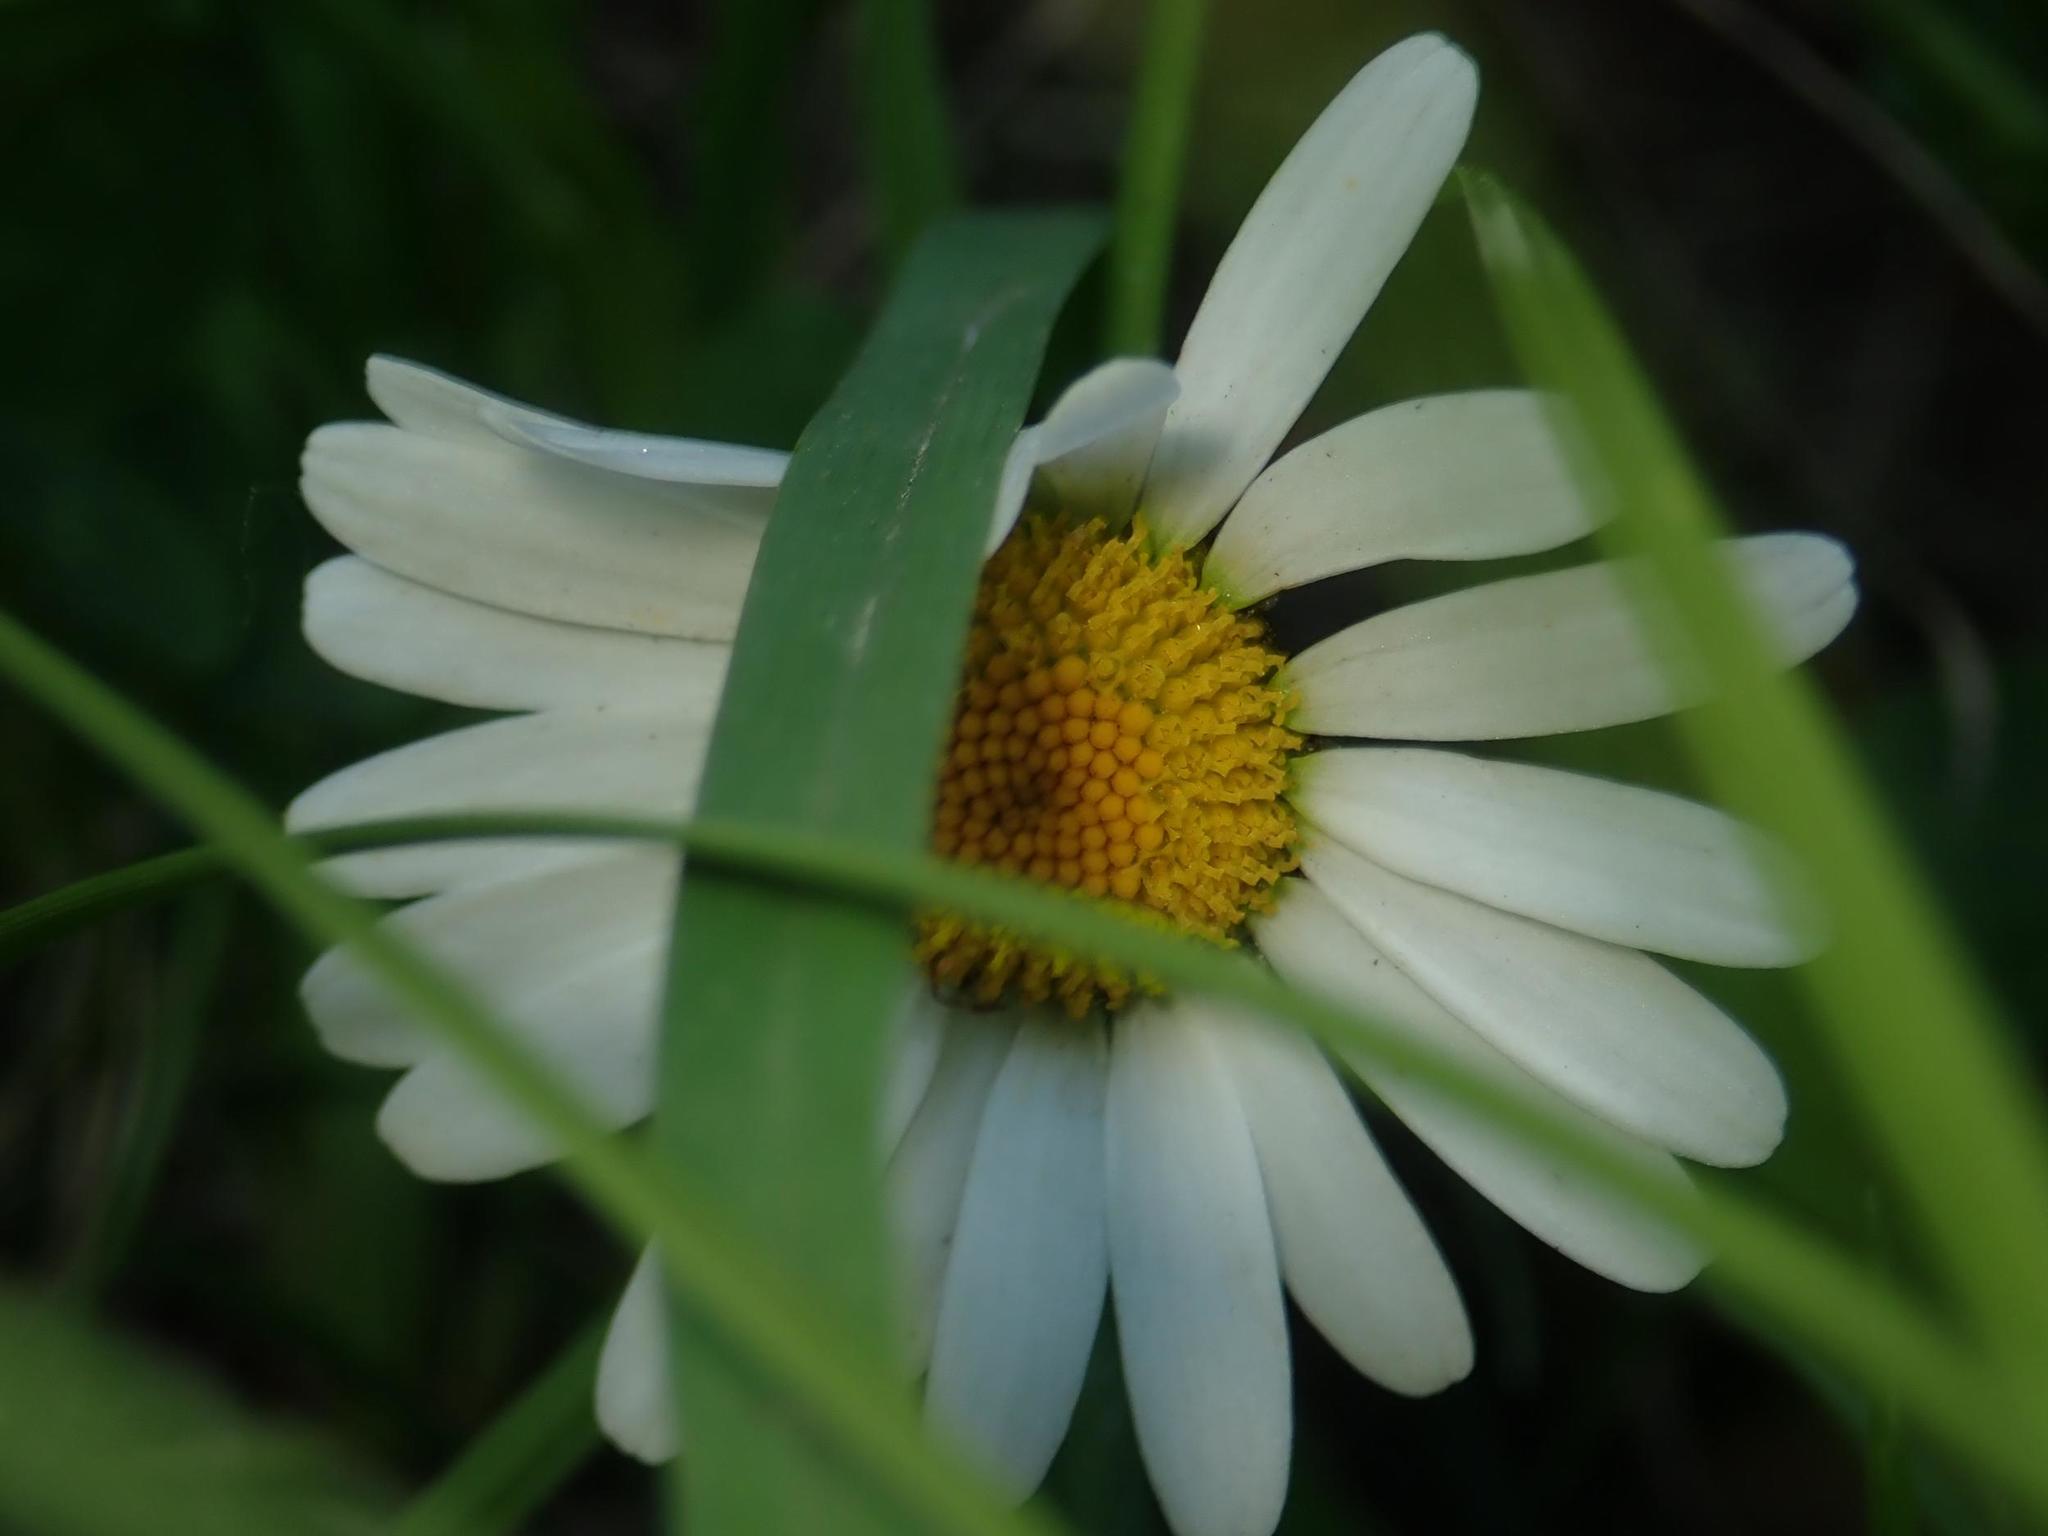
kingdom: Plantae
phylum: Tracheophyta
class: Magnoliopsida
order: Asterales
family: Asteraceae
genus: Leucanthemum
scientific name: Leucanthemum vulgare
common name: Oxeye daisy
